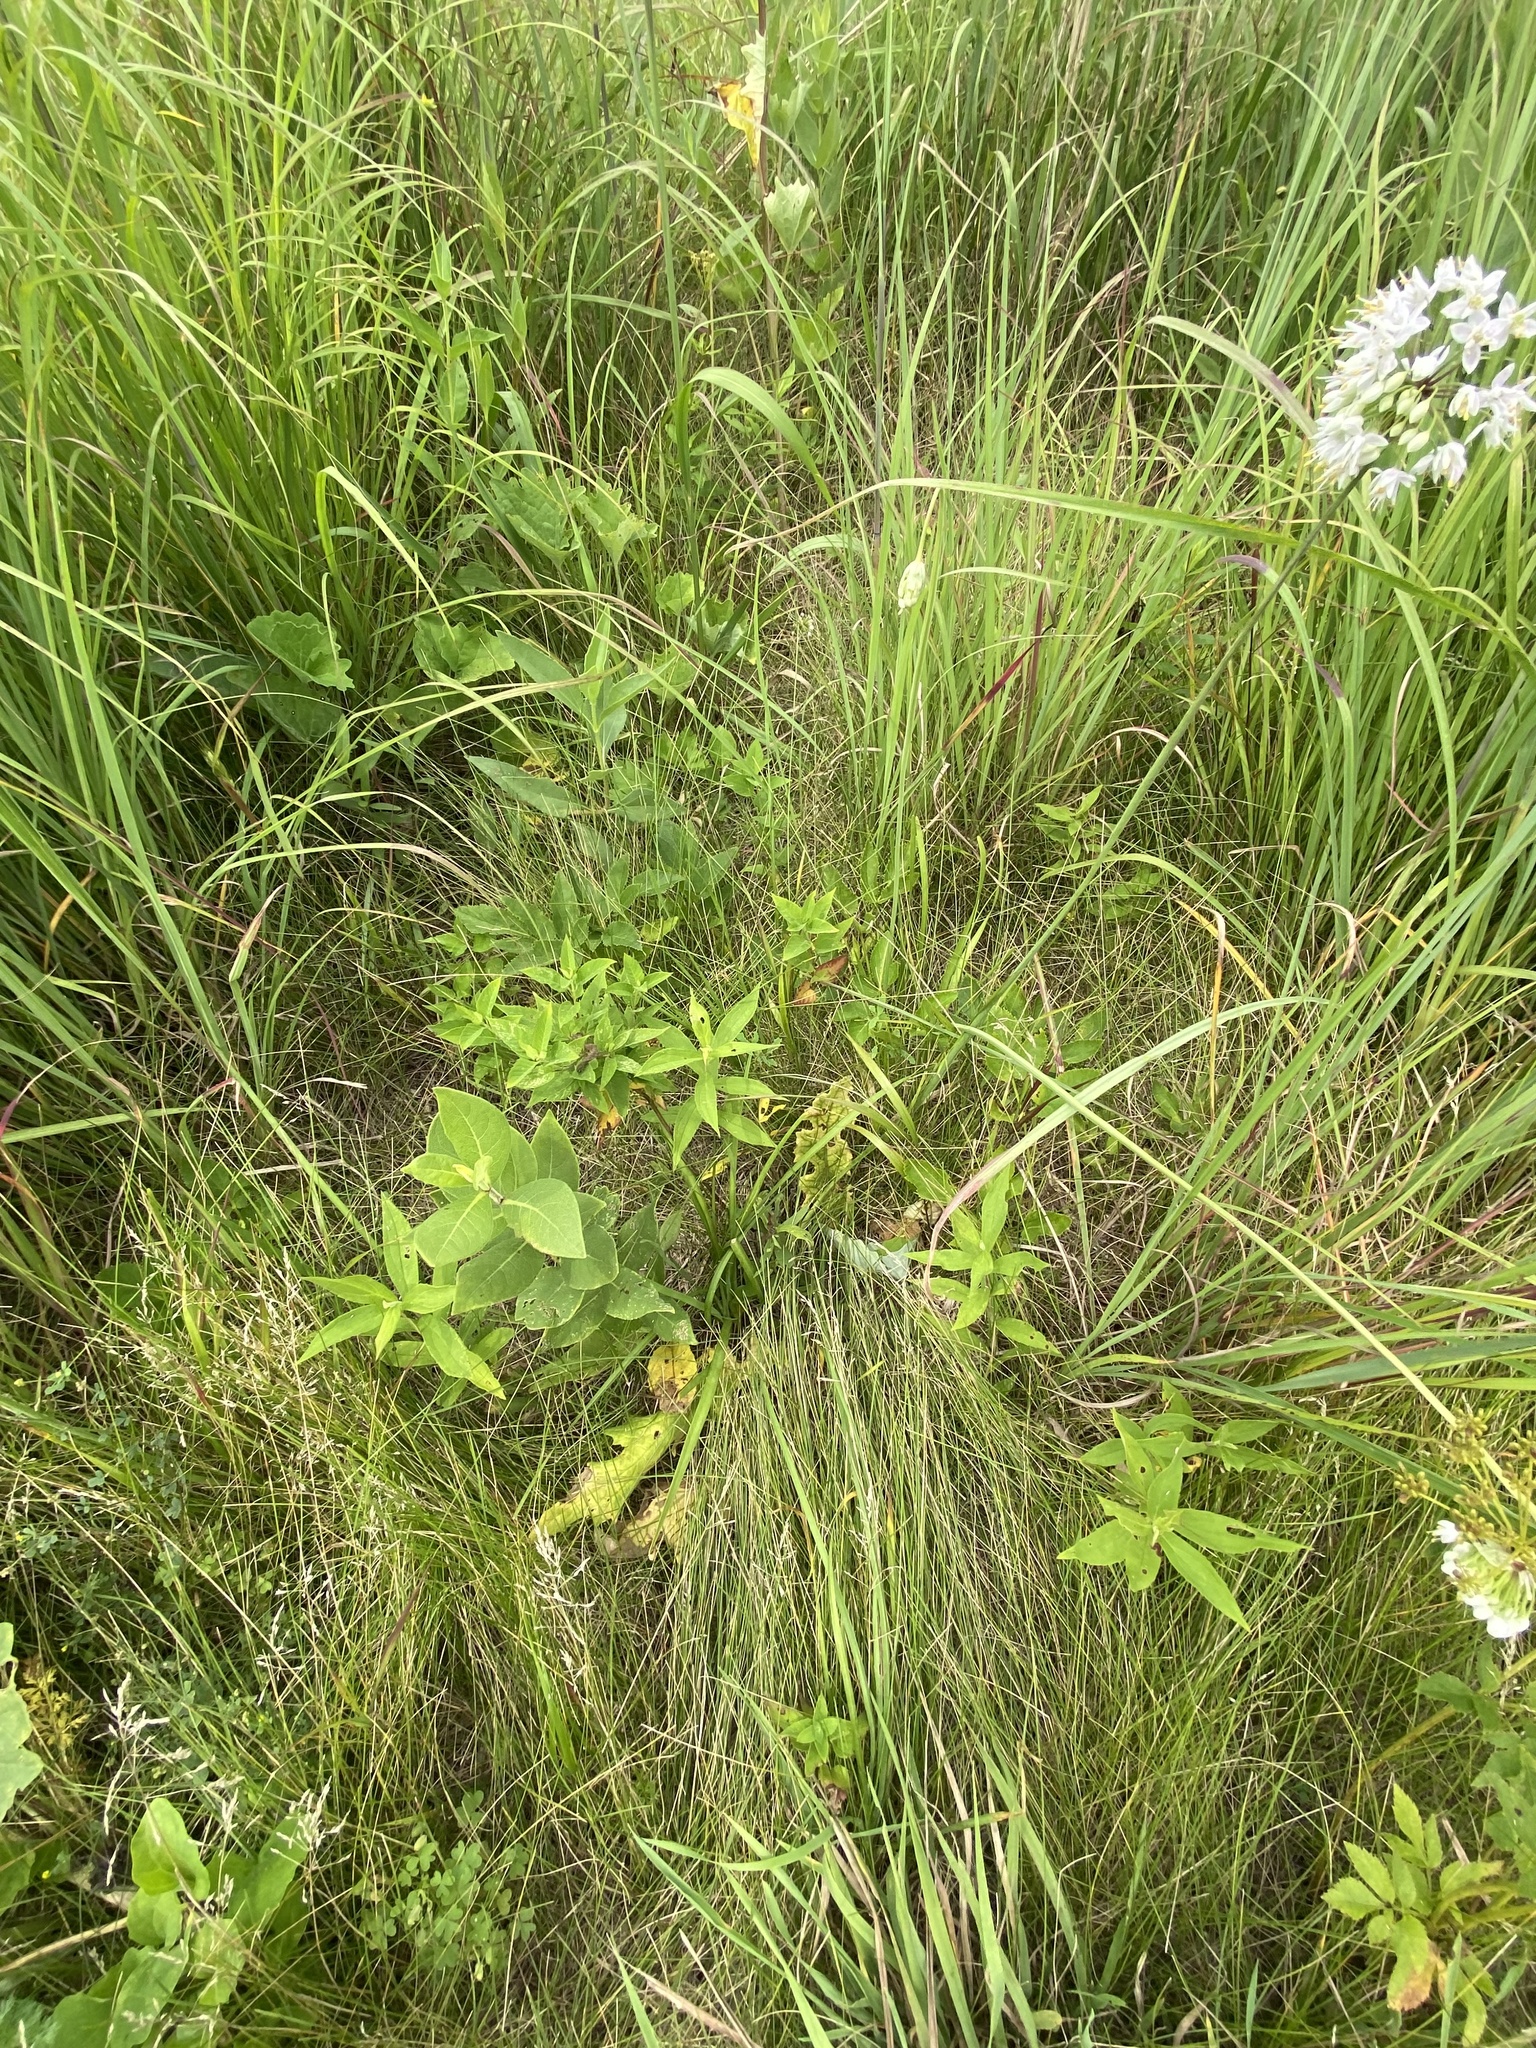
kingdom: Plantae
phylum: Tracheophyta
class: Liliopsida
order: Asparagales
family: Amaryllidaceae
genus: Allium
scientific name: Allium cernuum
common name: Nodding onion
